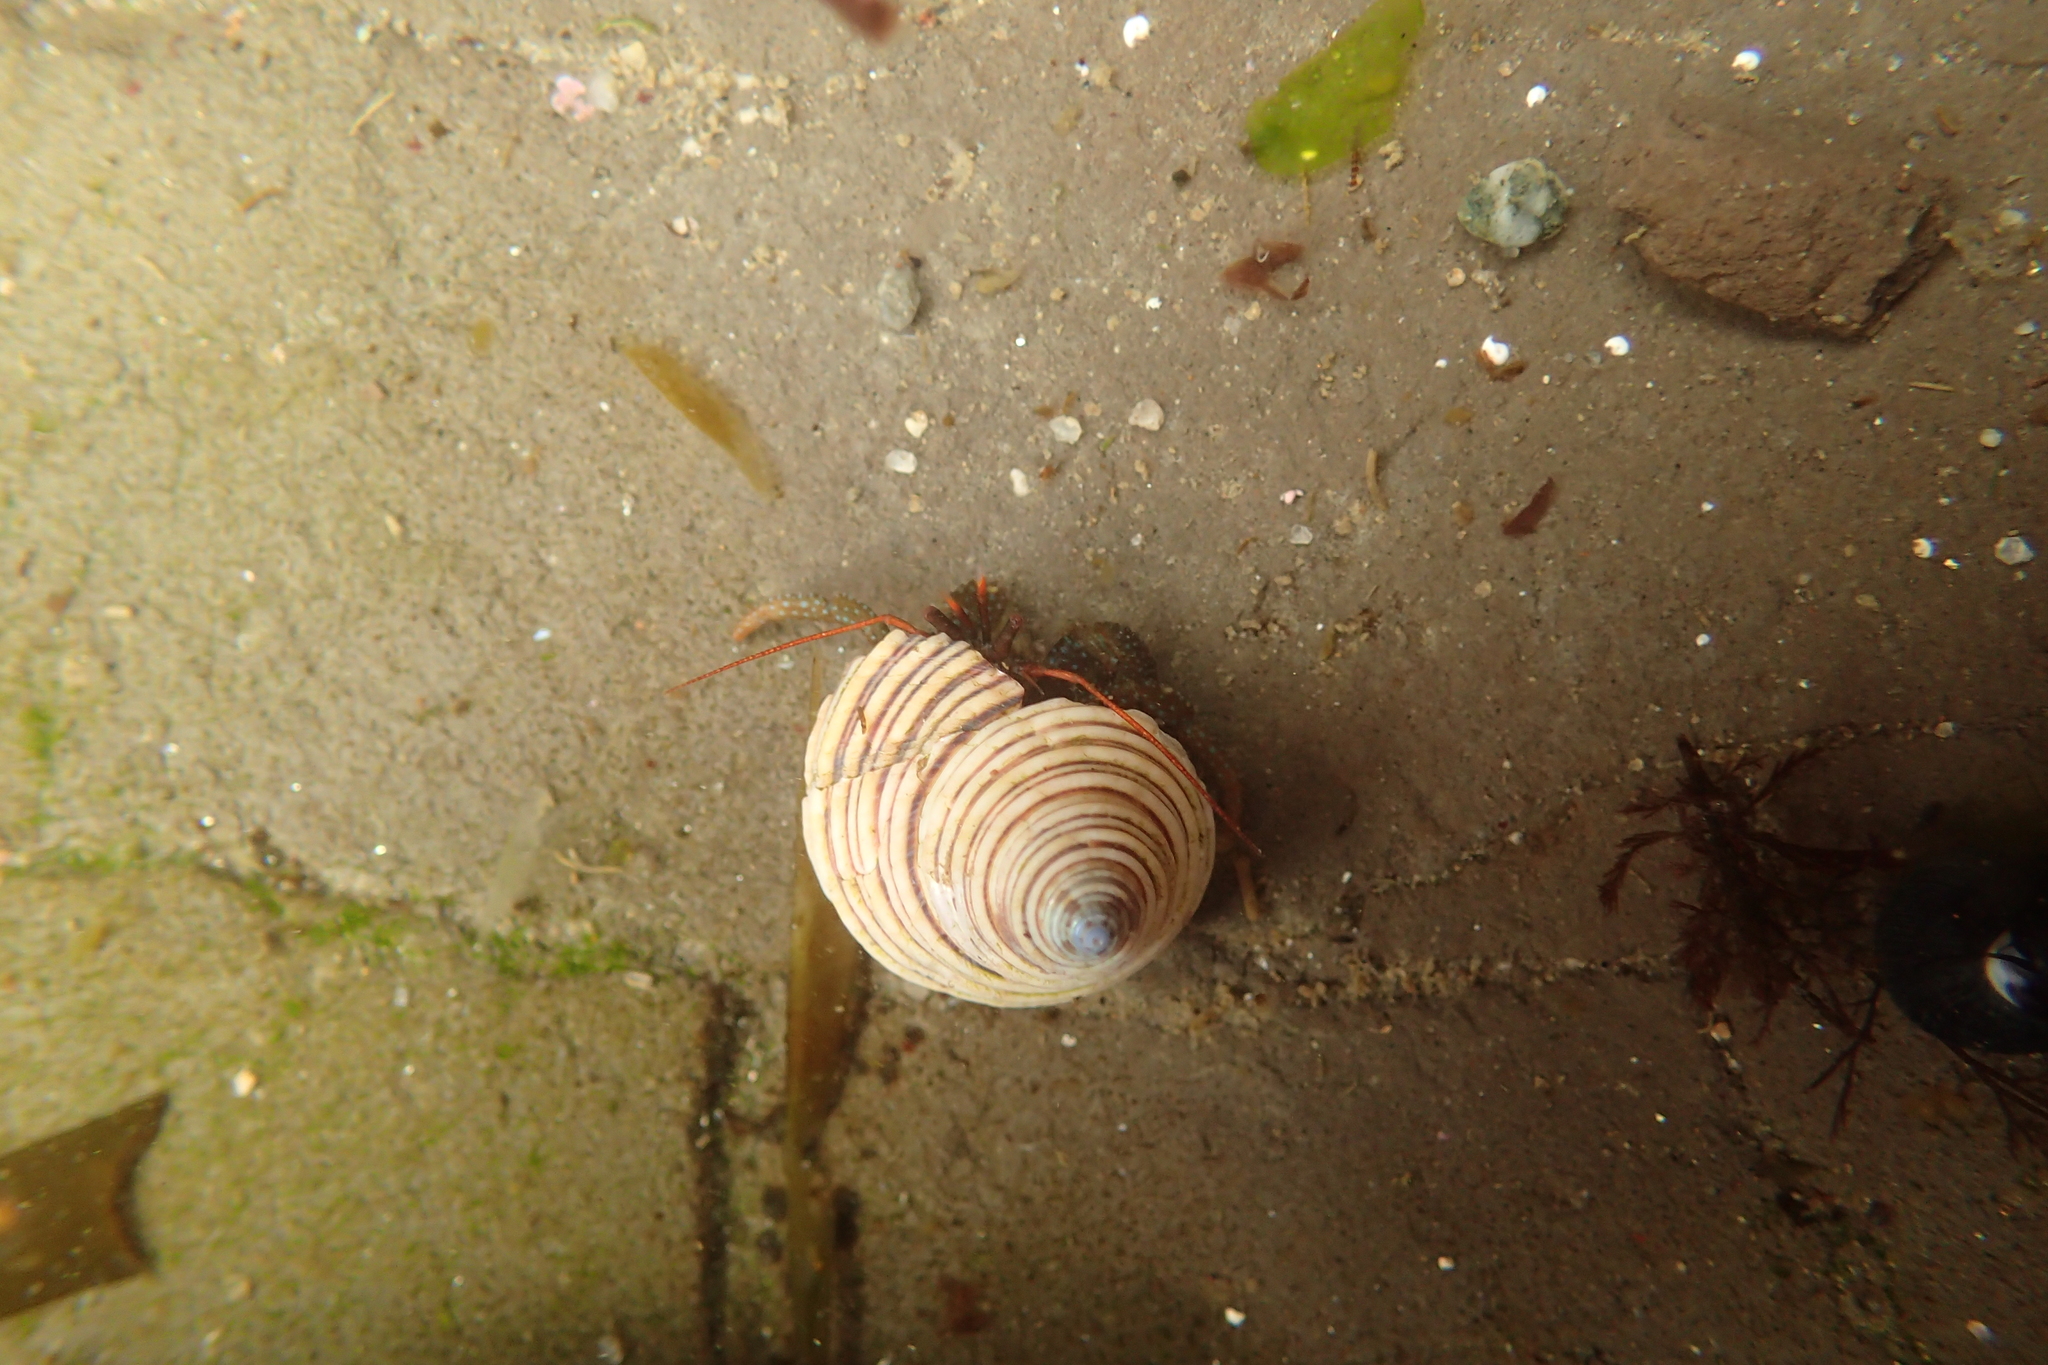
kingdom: Animalia
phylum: Arthropoda
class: Malacostraca
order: Decapoda
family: Paguridae
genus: Pagurus
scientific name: Pagurus granosimanus
